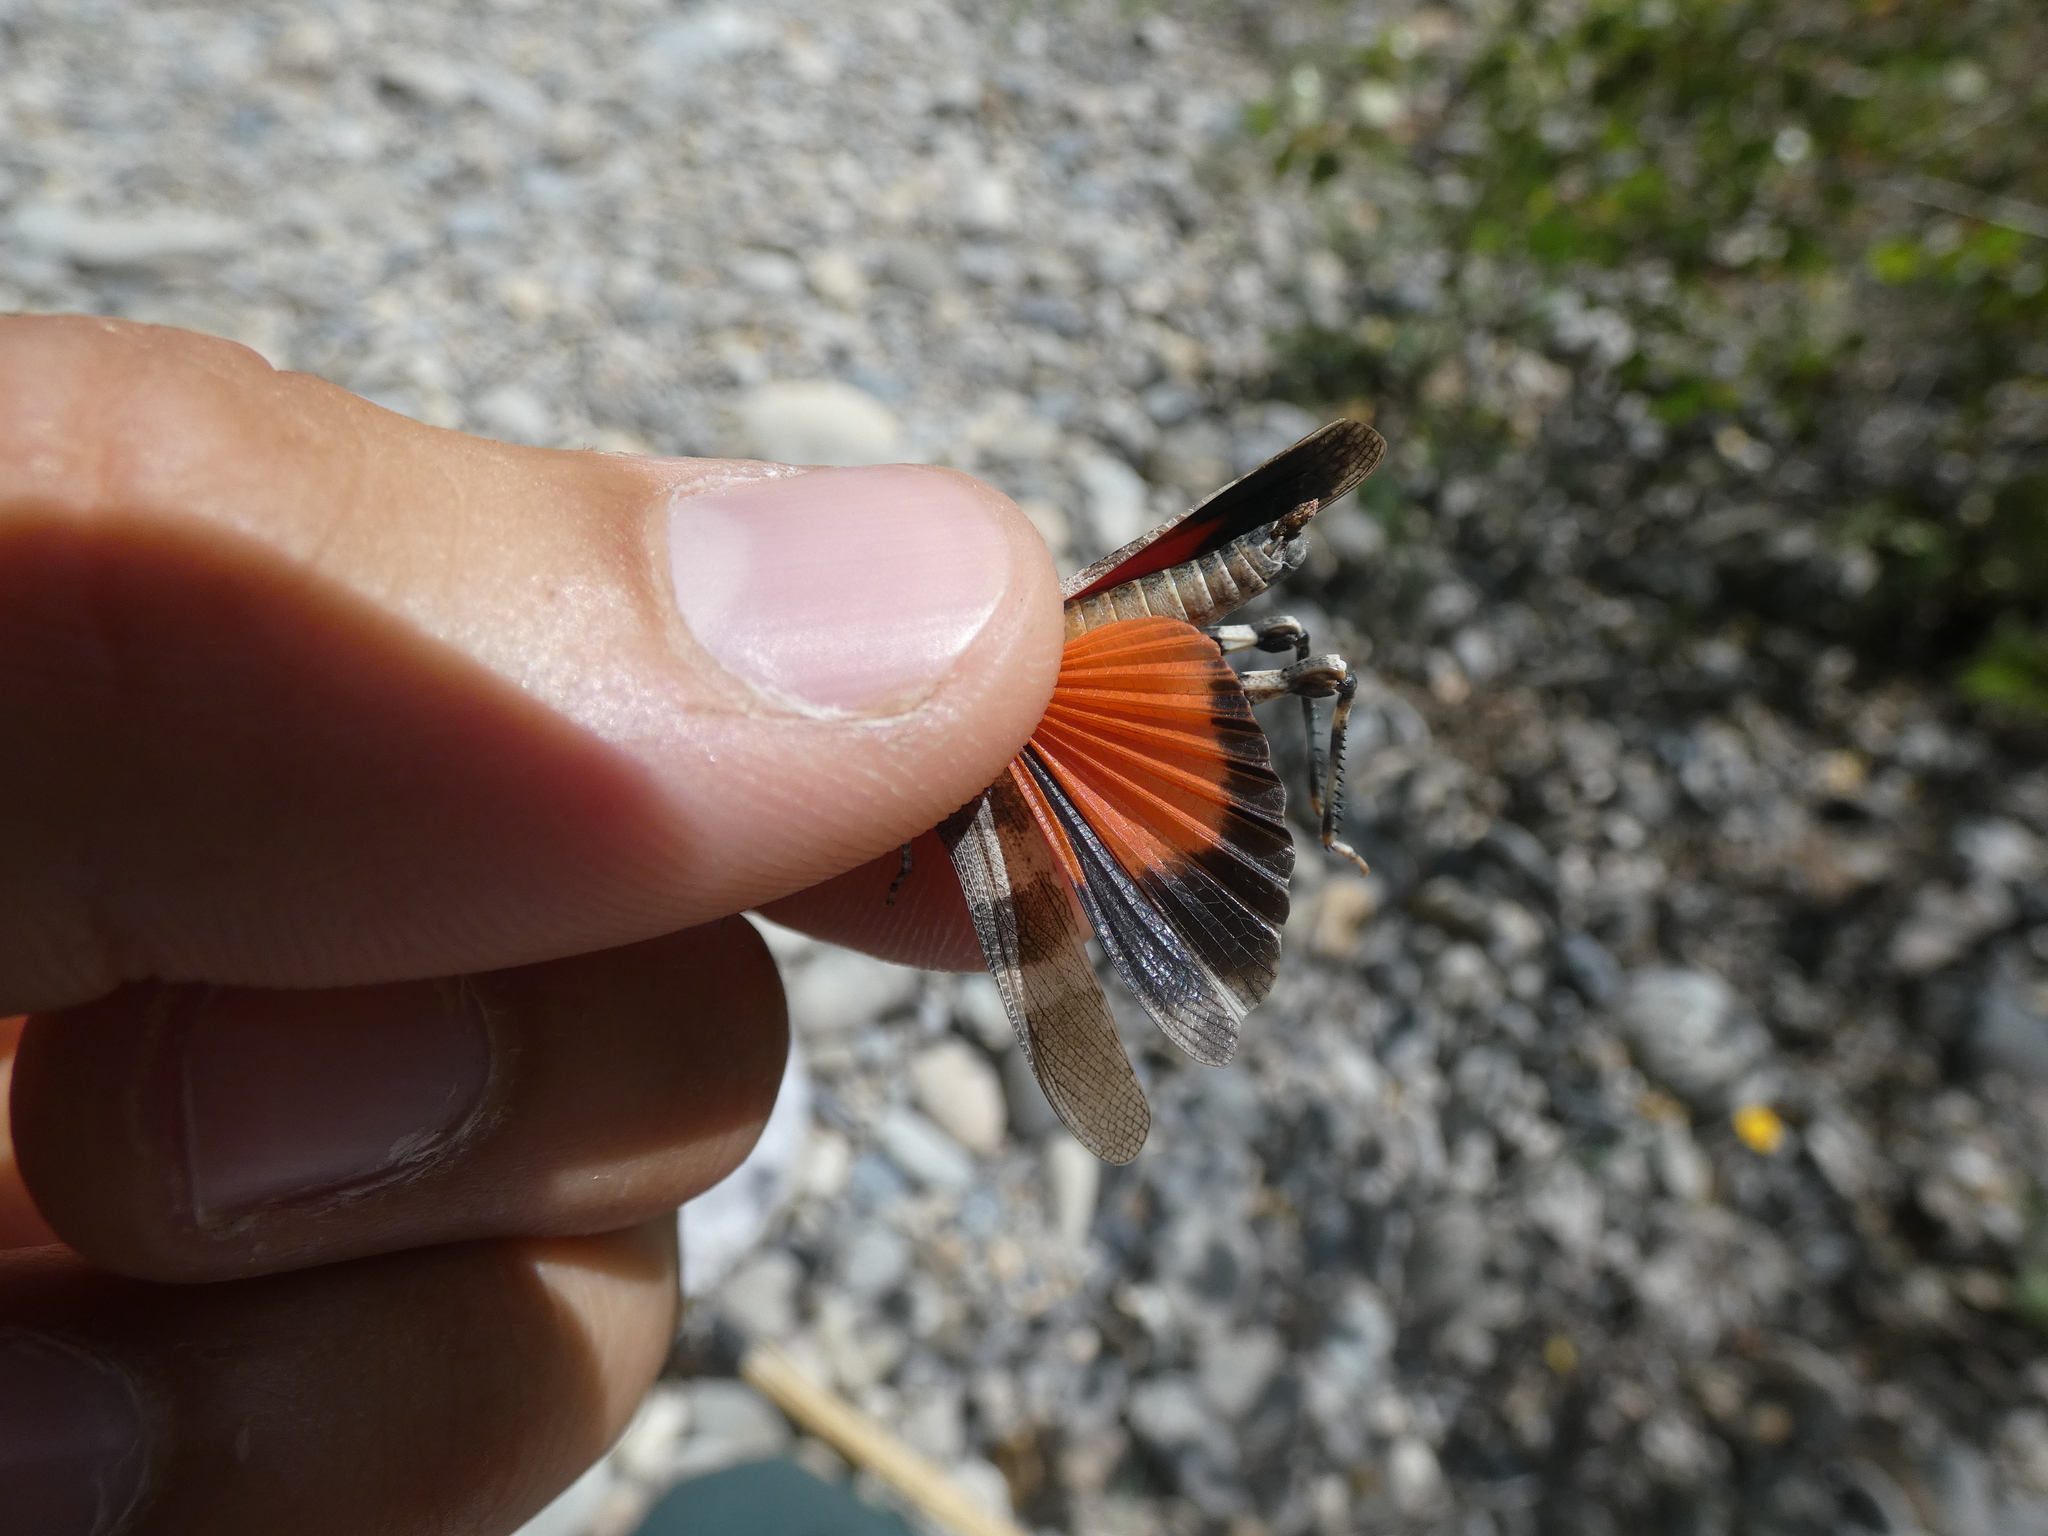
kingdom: Animalia
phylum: Arthropoda
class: Insecta
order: Orthoptera
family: Acrididae
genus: Oedipoda
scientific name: Oedipoda germanica
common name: Red band-winged grasshopper
